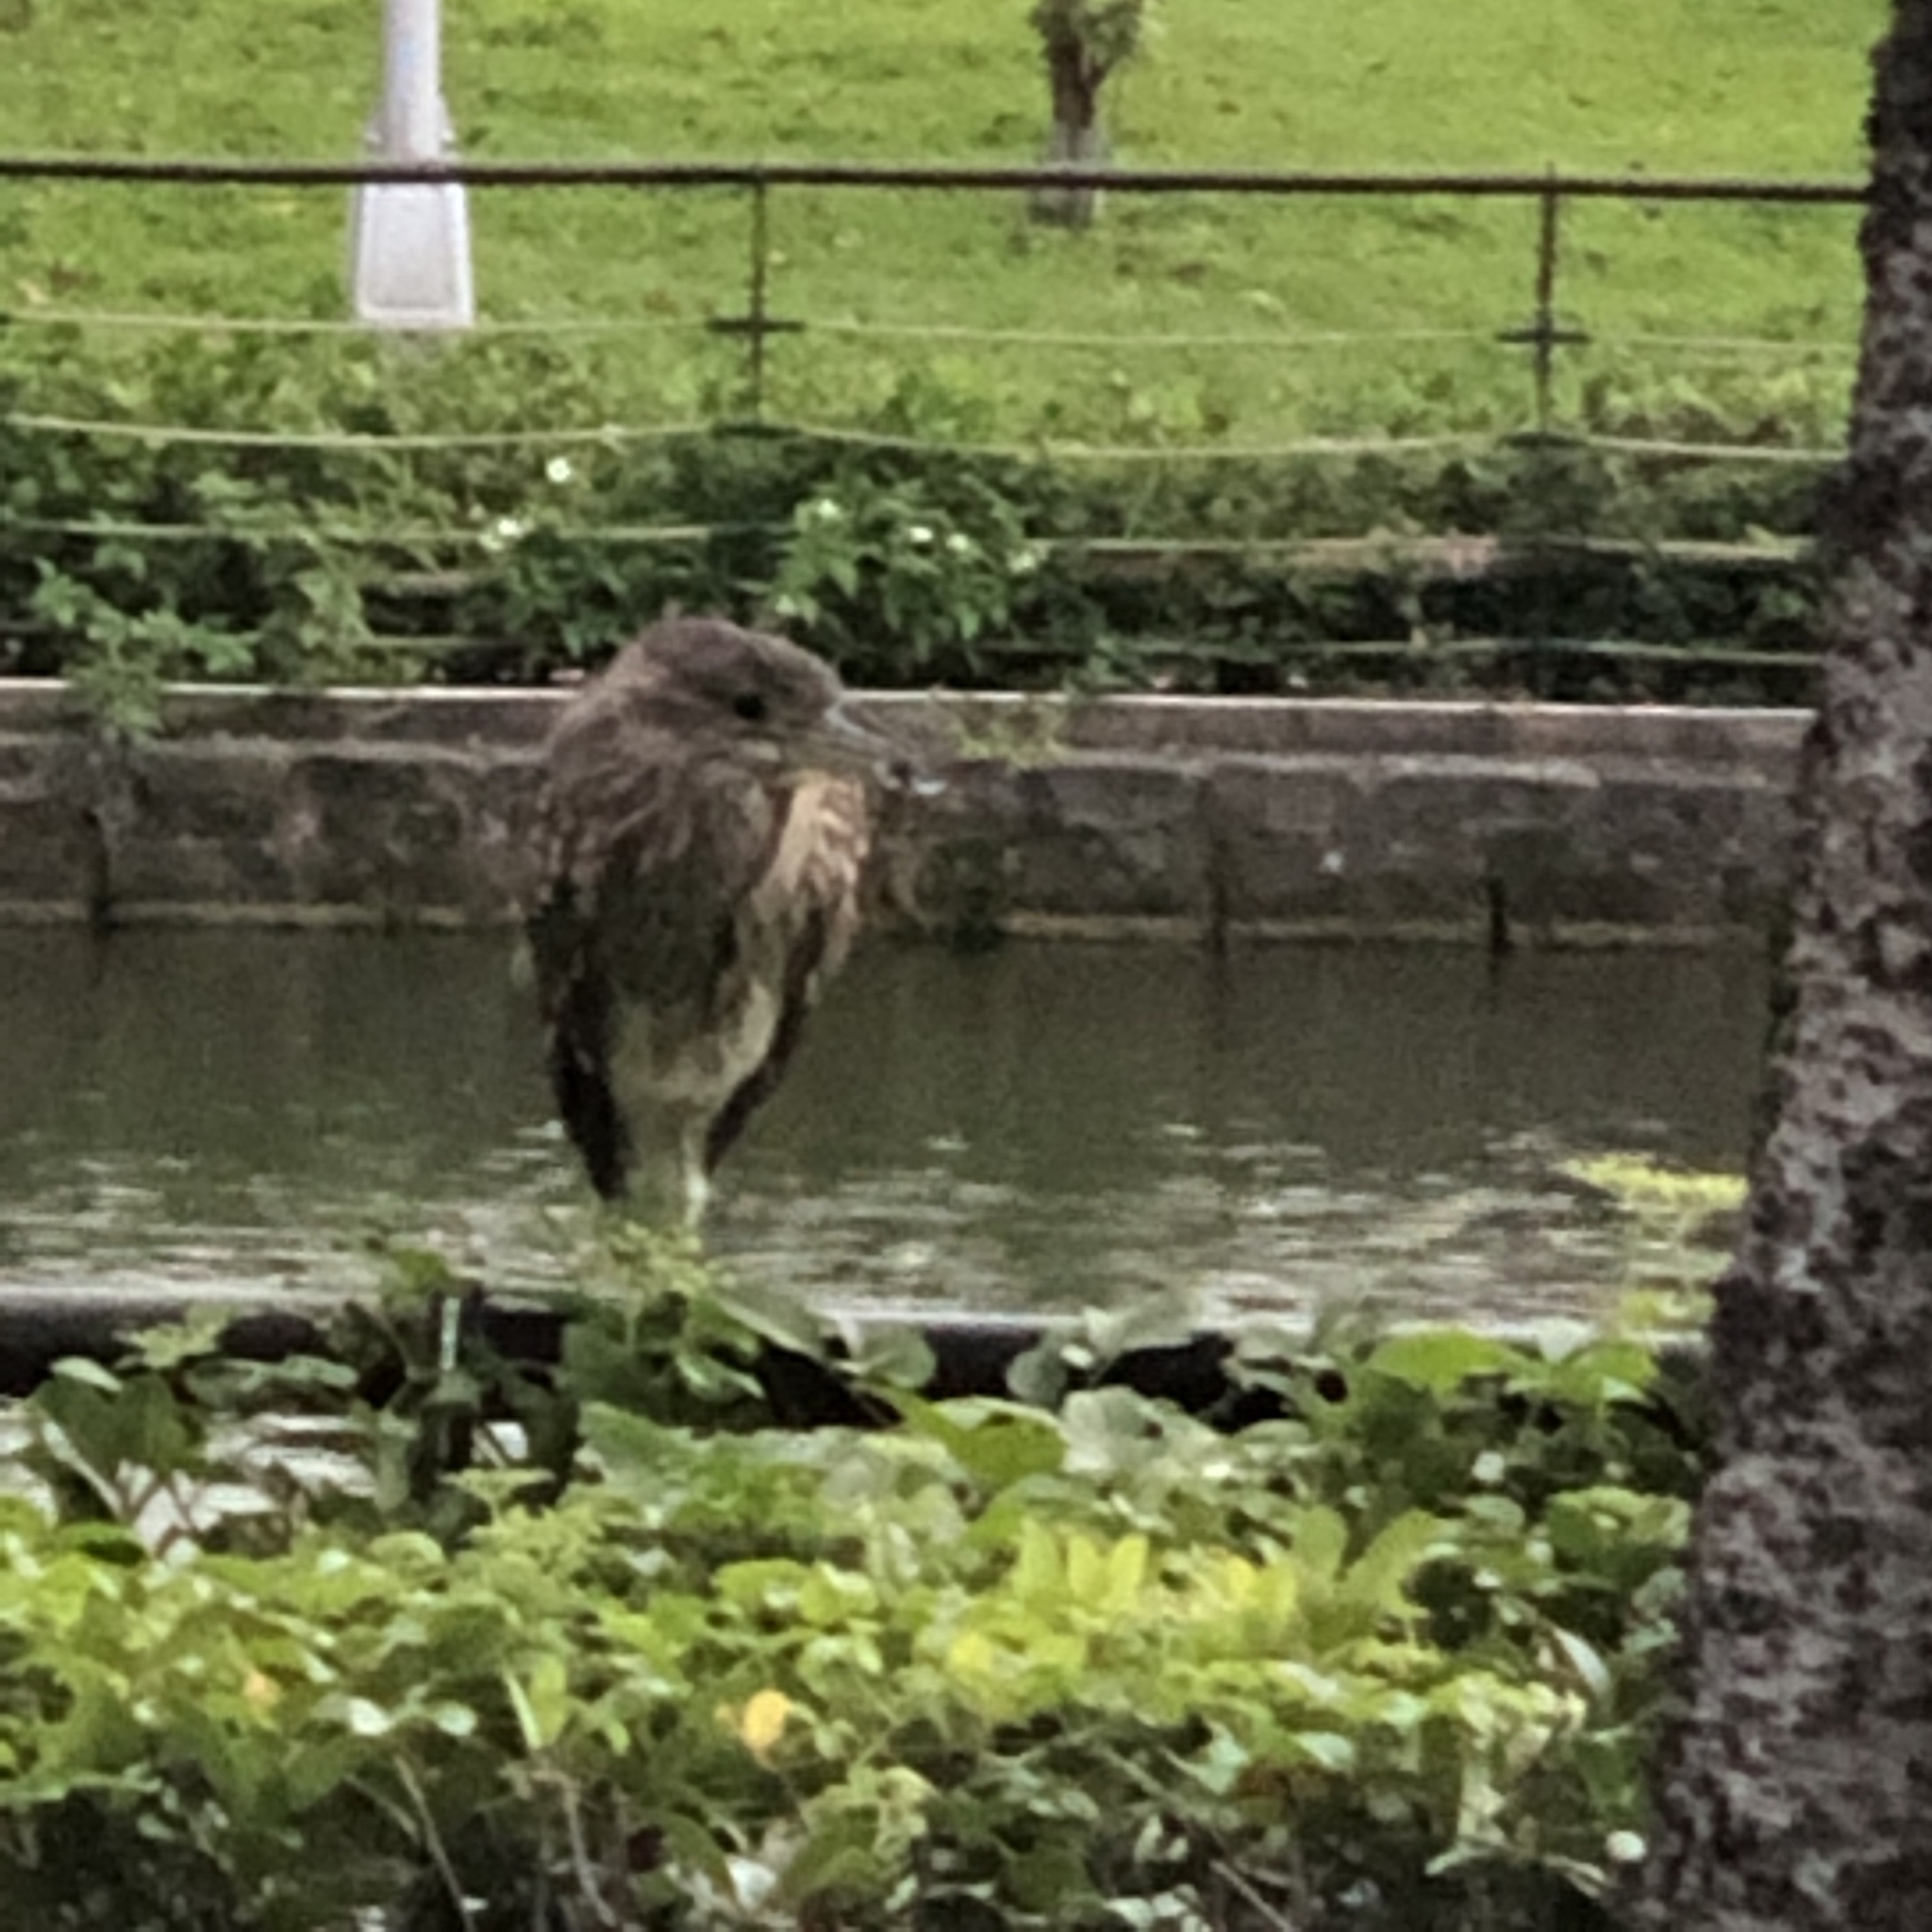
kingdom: Animalia
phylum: Chordata
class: Aves
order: Pelecaniformes
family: Ardeidae
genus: Nycticorax
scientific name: Nycticorax nycticorax
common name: Black-crowned night heron
